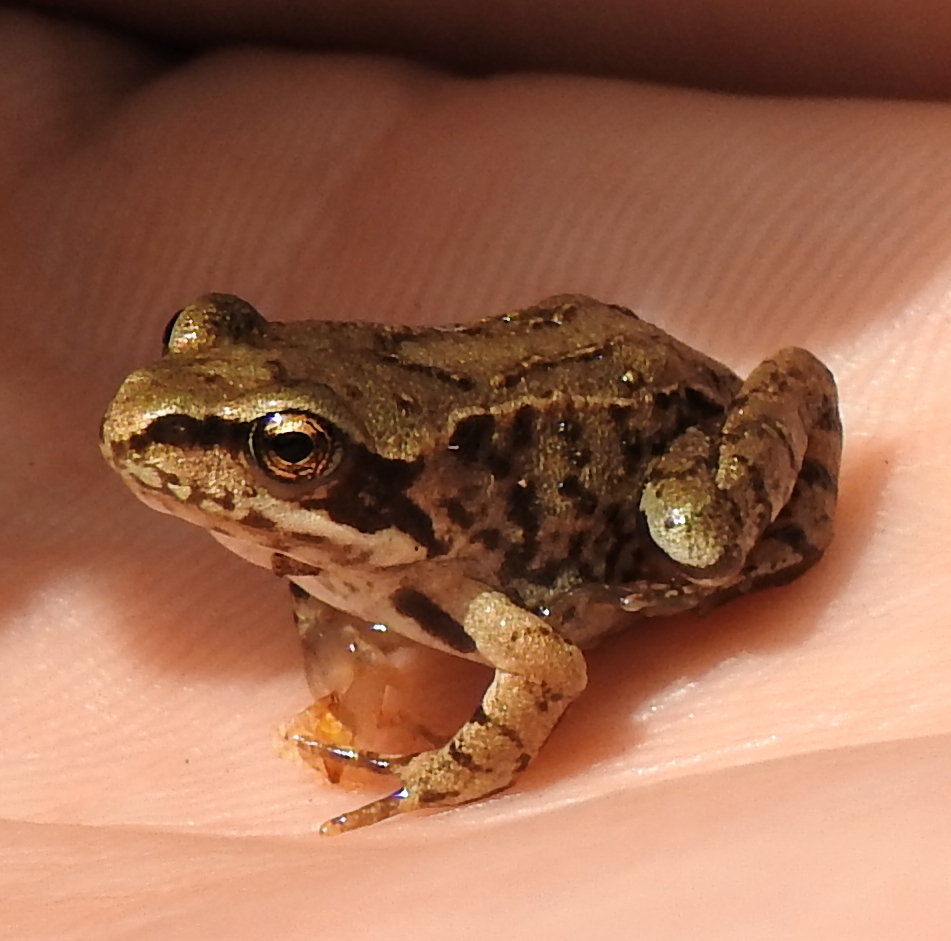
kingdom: Animalia
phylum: Chordata
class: Amphibia
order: Anura
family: Ranidae
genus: Rana
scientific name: Rana temporaria
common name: Common frog
